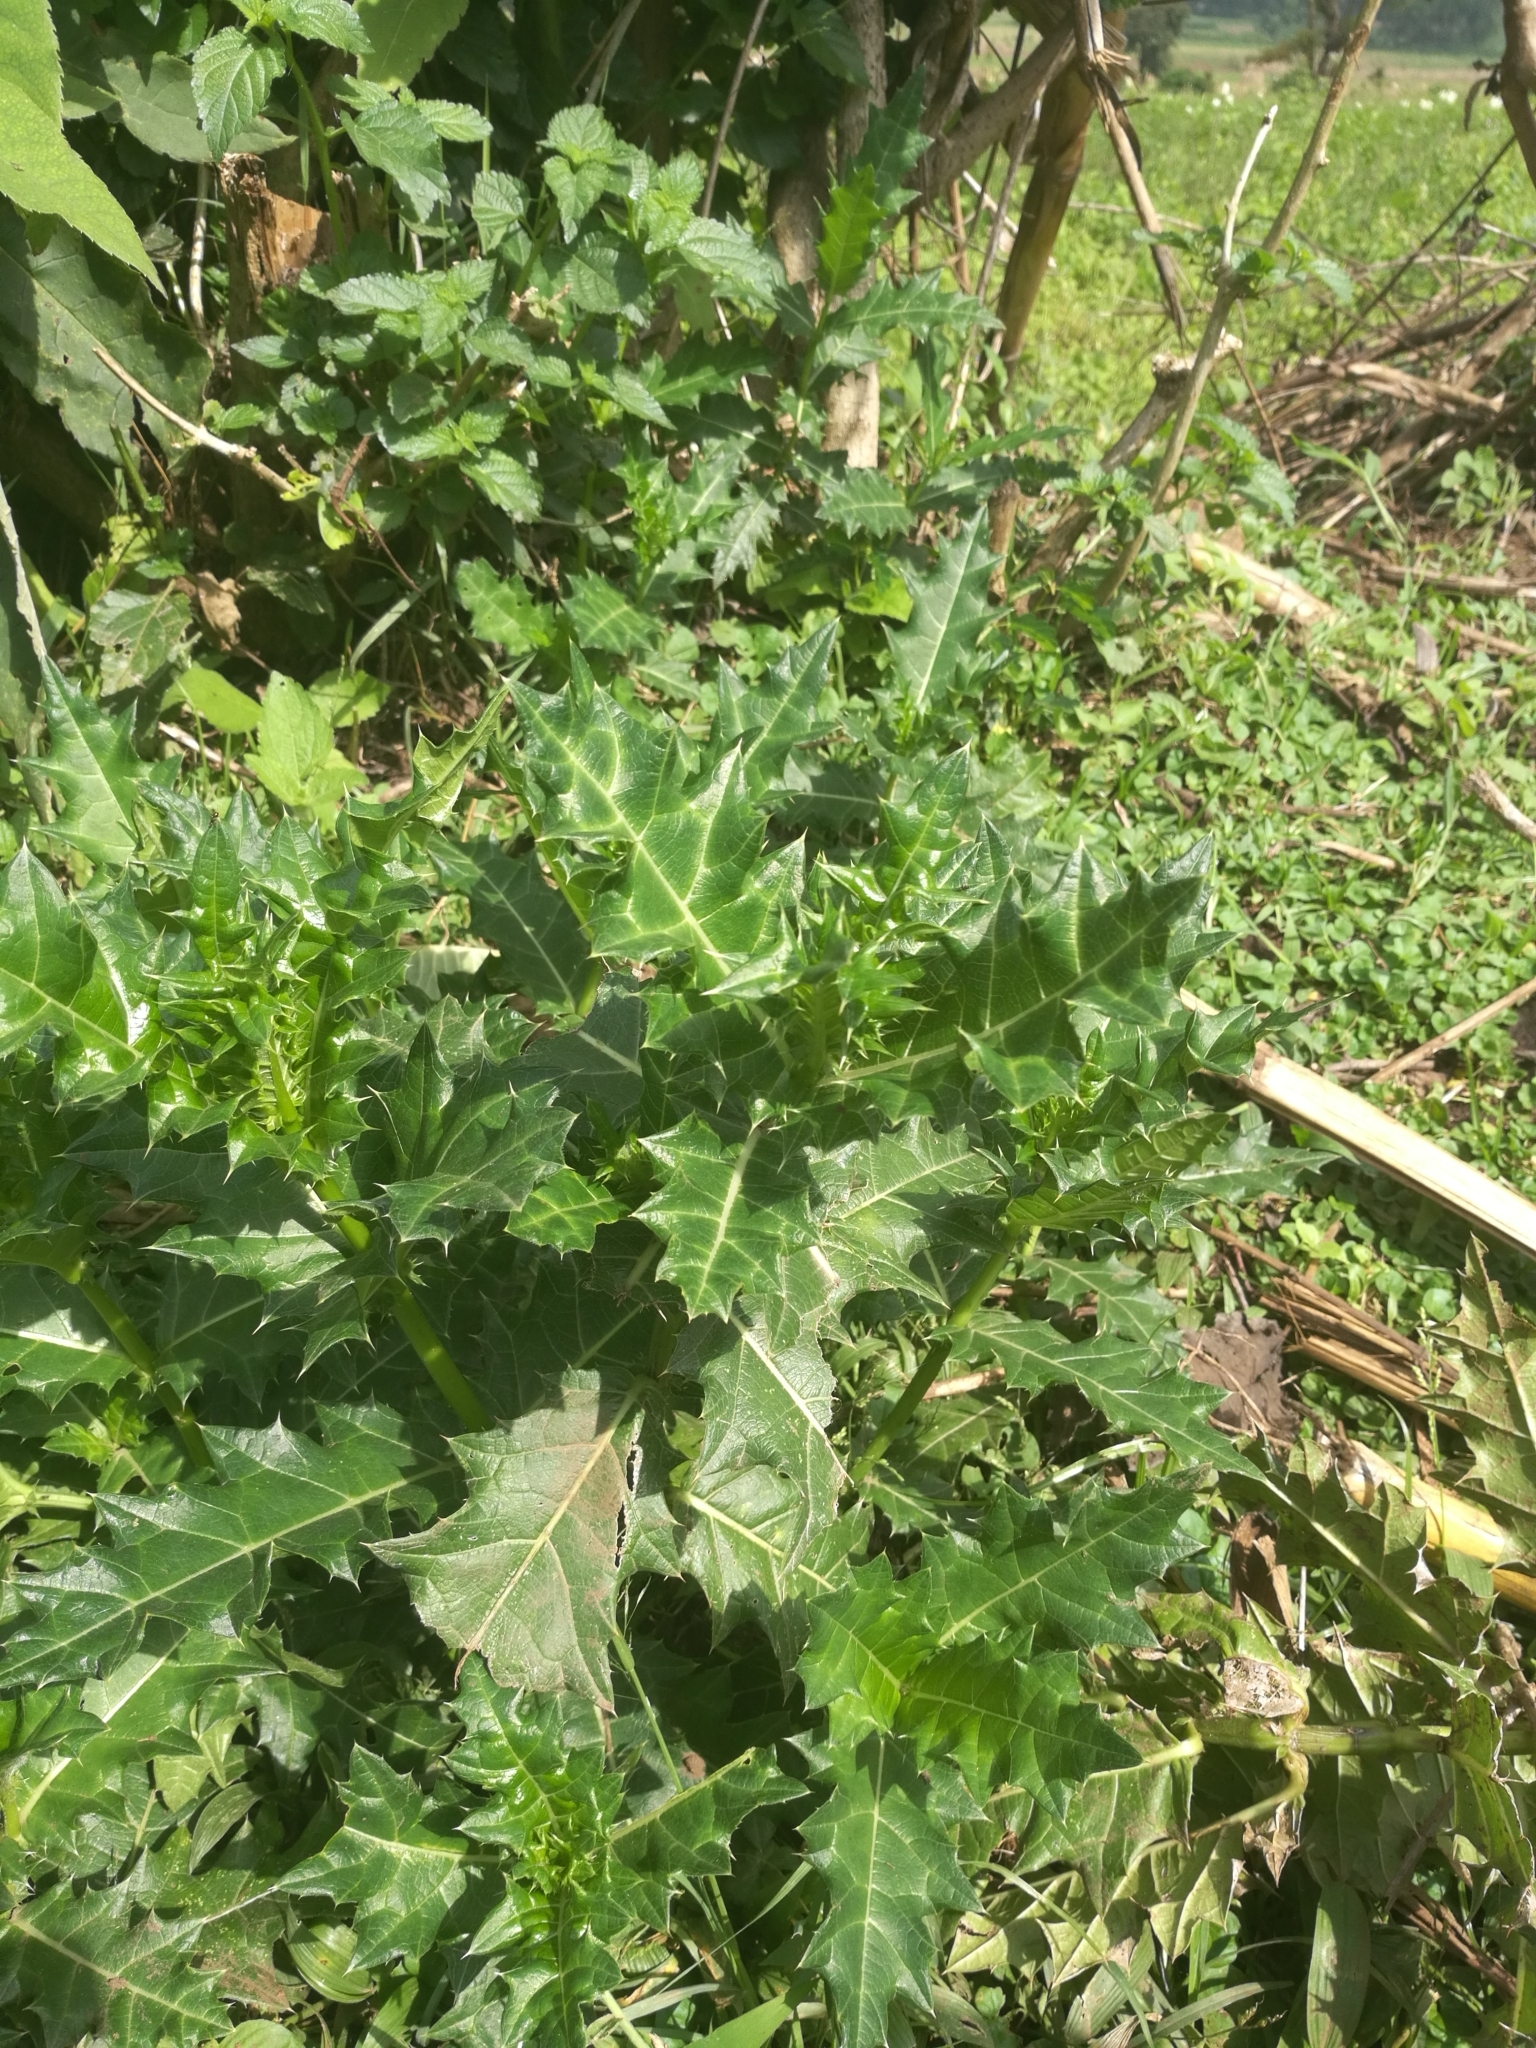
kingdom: Plantae
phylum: Tracheophyta
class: Magnoliopsida
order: Lamiales
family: Acanthaceae
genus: Acanthus
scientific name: Acanthus sennii
